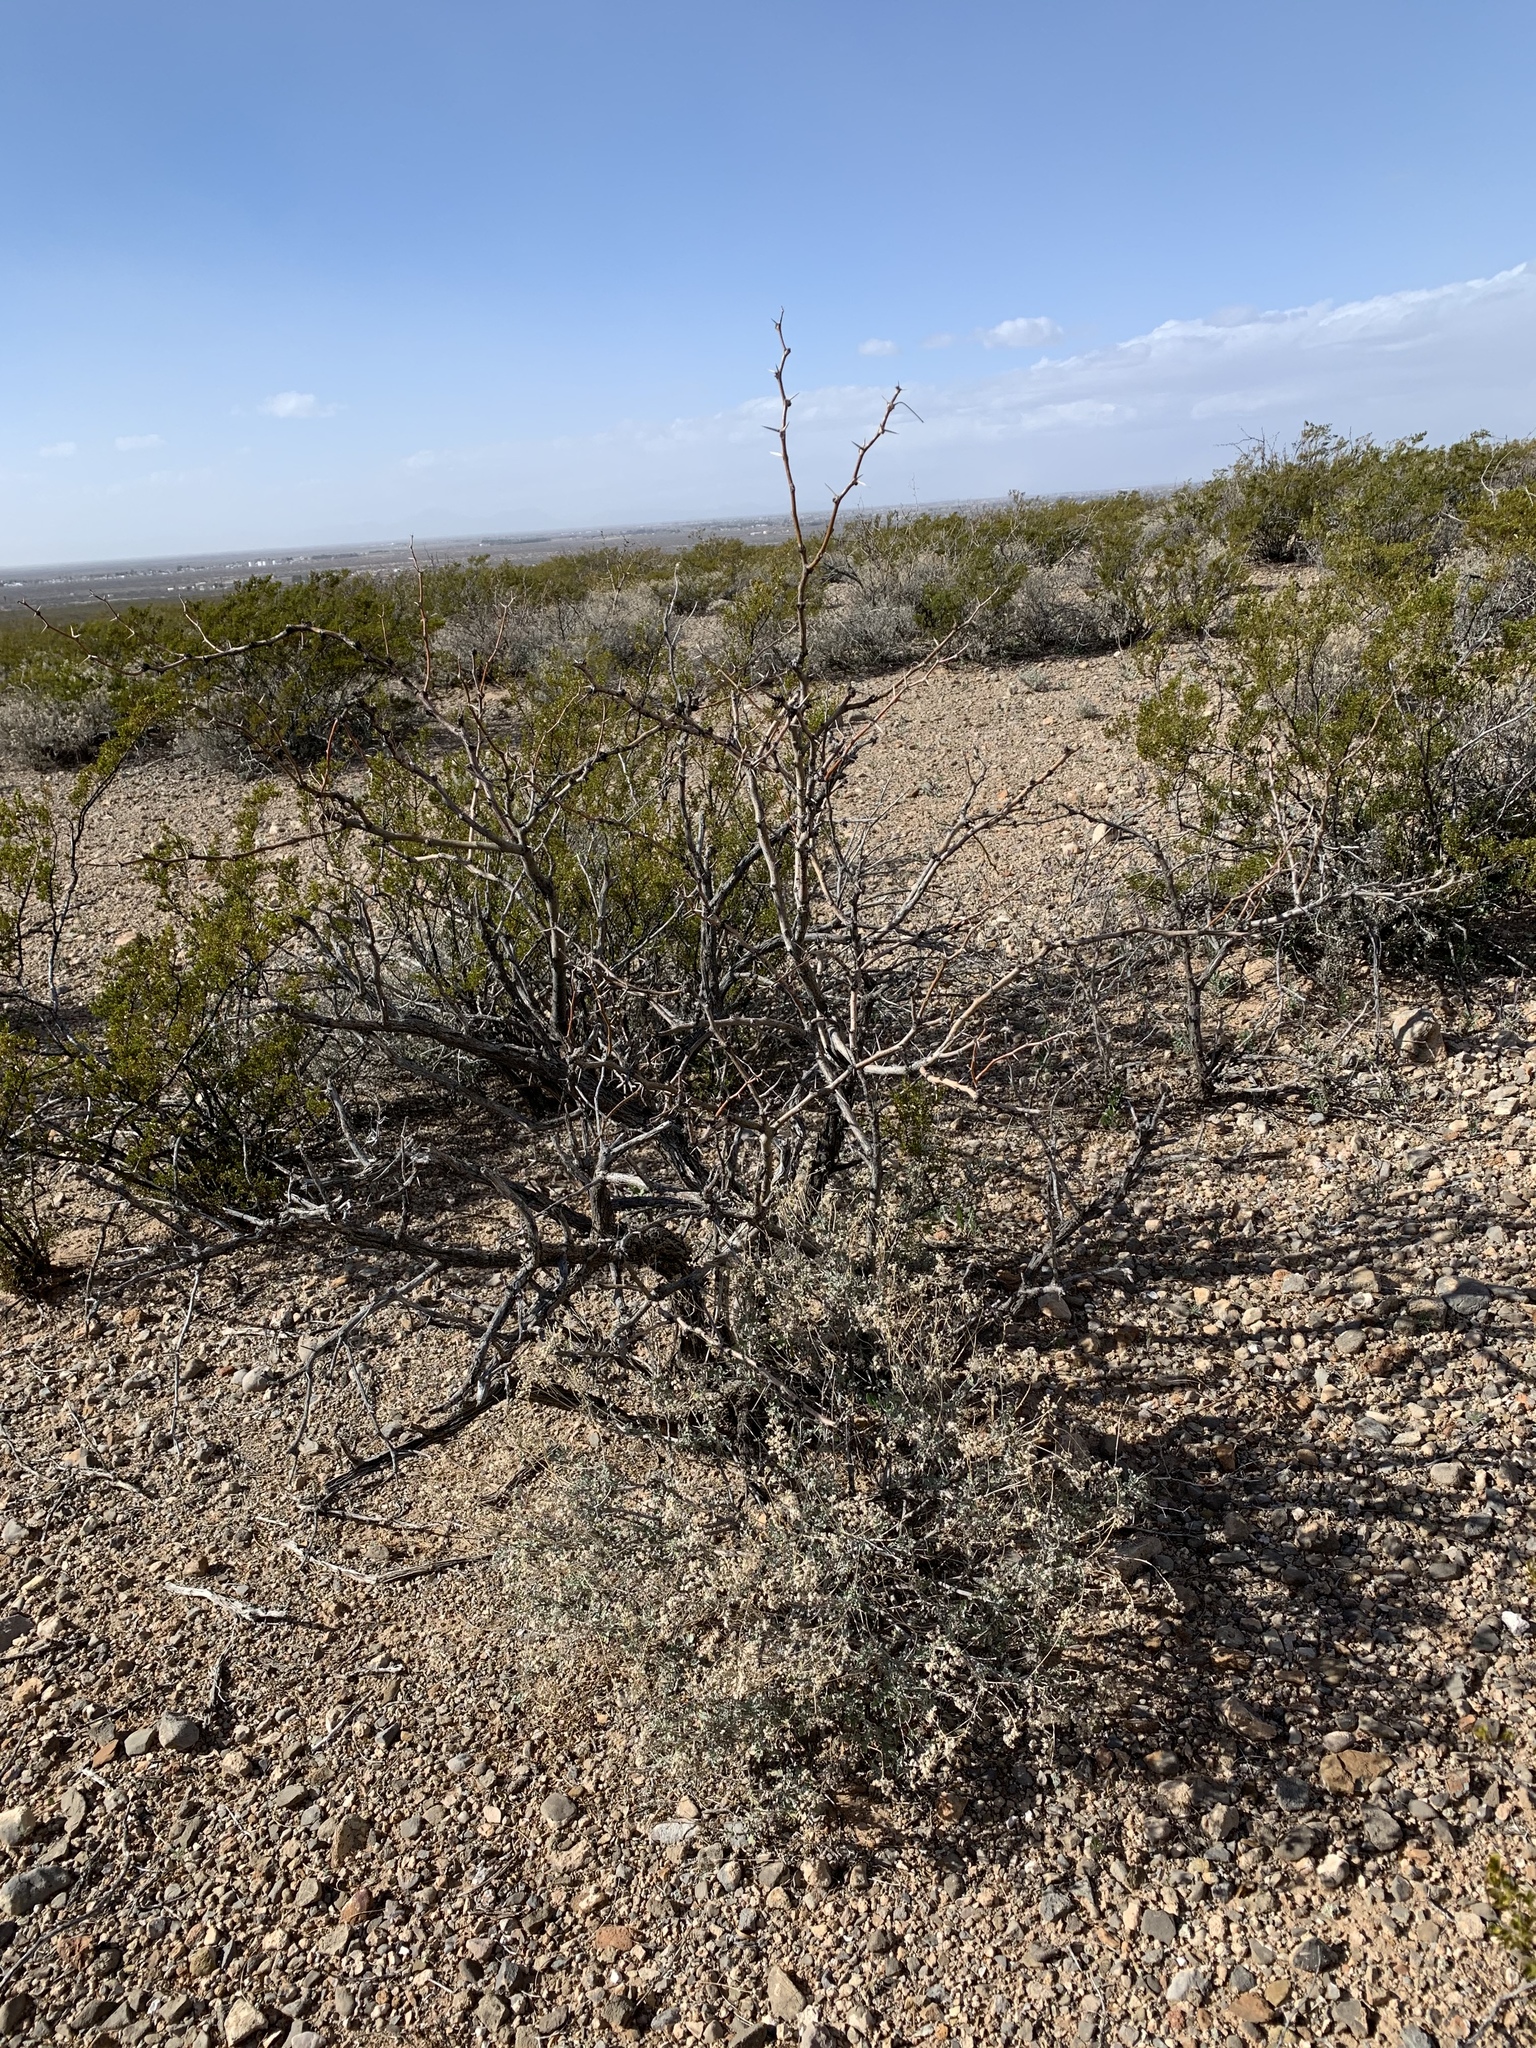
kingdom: Plantae
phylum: Tracheophyta
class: Magnoliopsida
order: Fabales
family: Fabaceae
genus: Prosopis
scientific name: Prosopis glandulosa
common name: Honey mesquite
